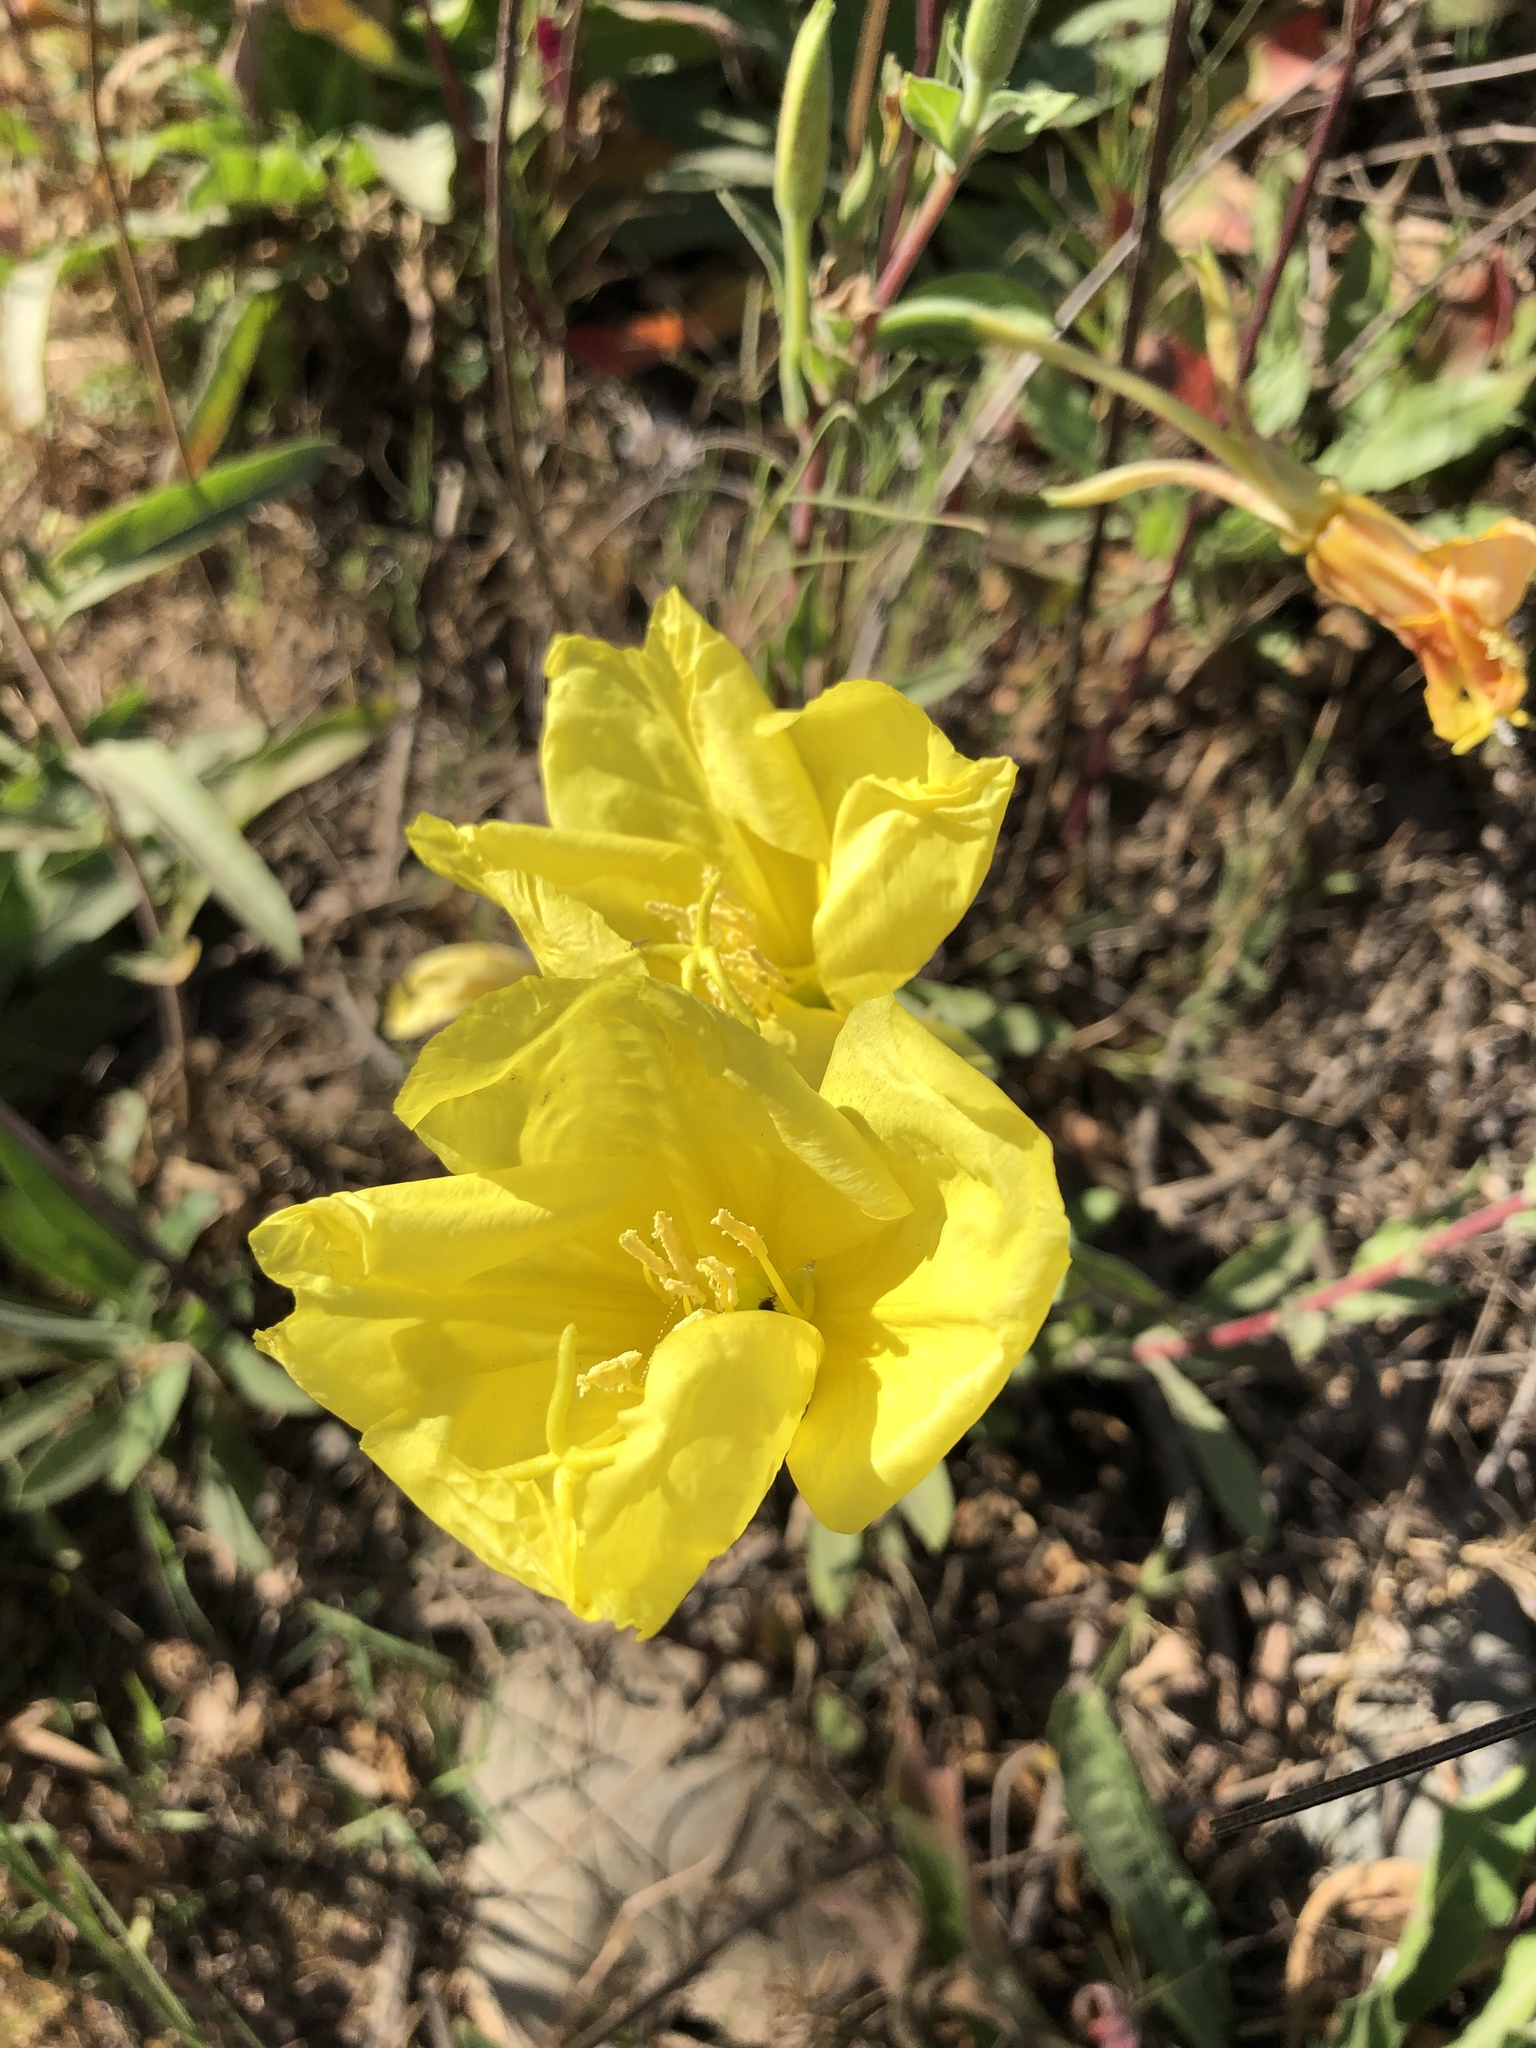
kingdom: Plantae
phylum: Tracheophyta
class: Magnoliopsida
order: Myrtales
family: Onagraceae
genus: Oenothera
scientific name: Oenothera elata
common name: Hooker's evening-primrose
